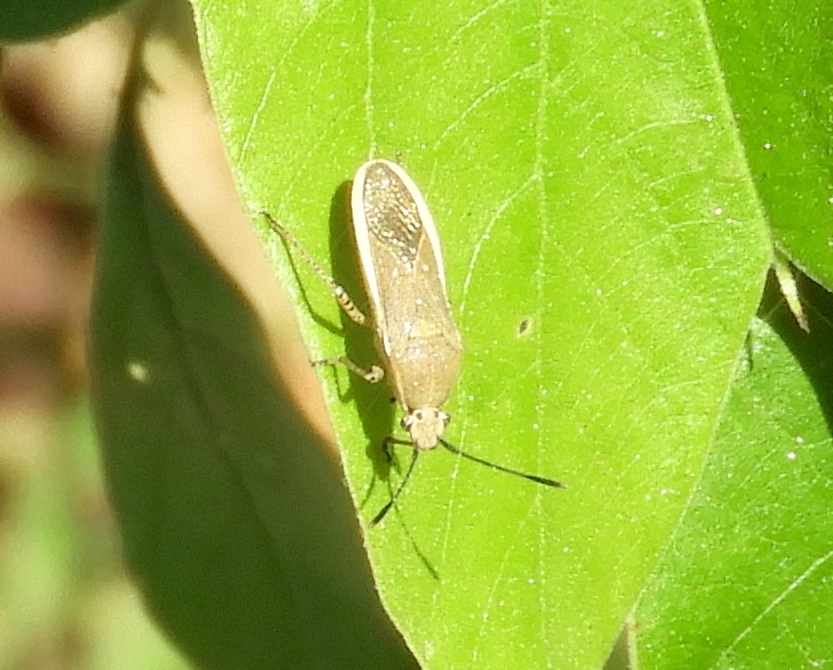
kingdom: Animalia
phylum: Arthropoda
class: Insecta
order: Hemiptera
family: Coreidae
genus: Catorhintha
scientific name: Catorhintha selector
